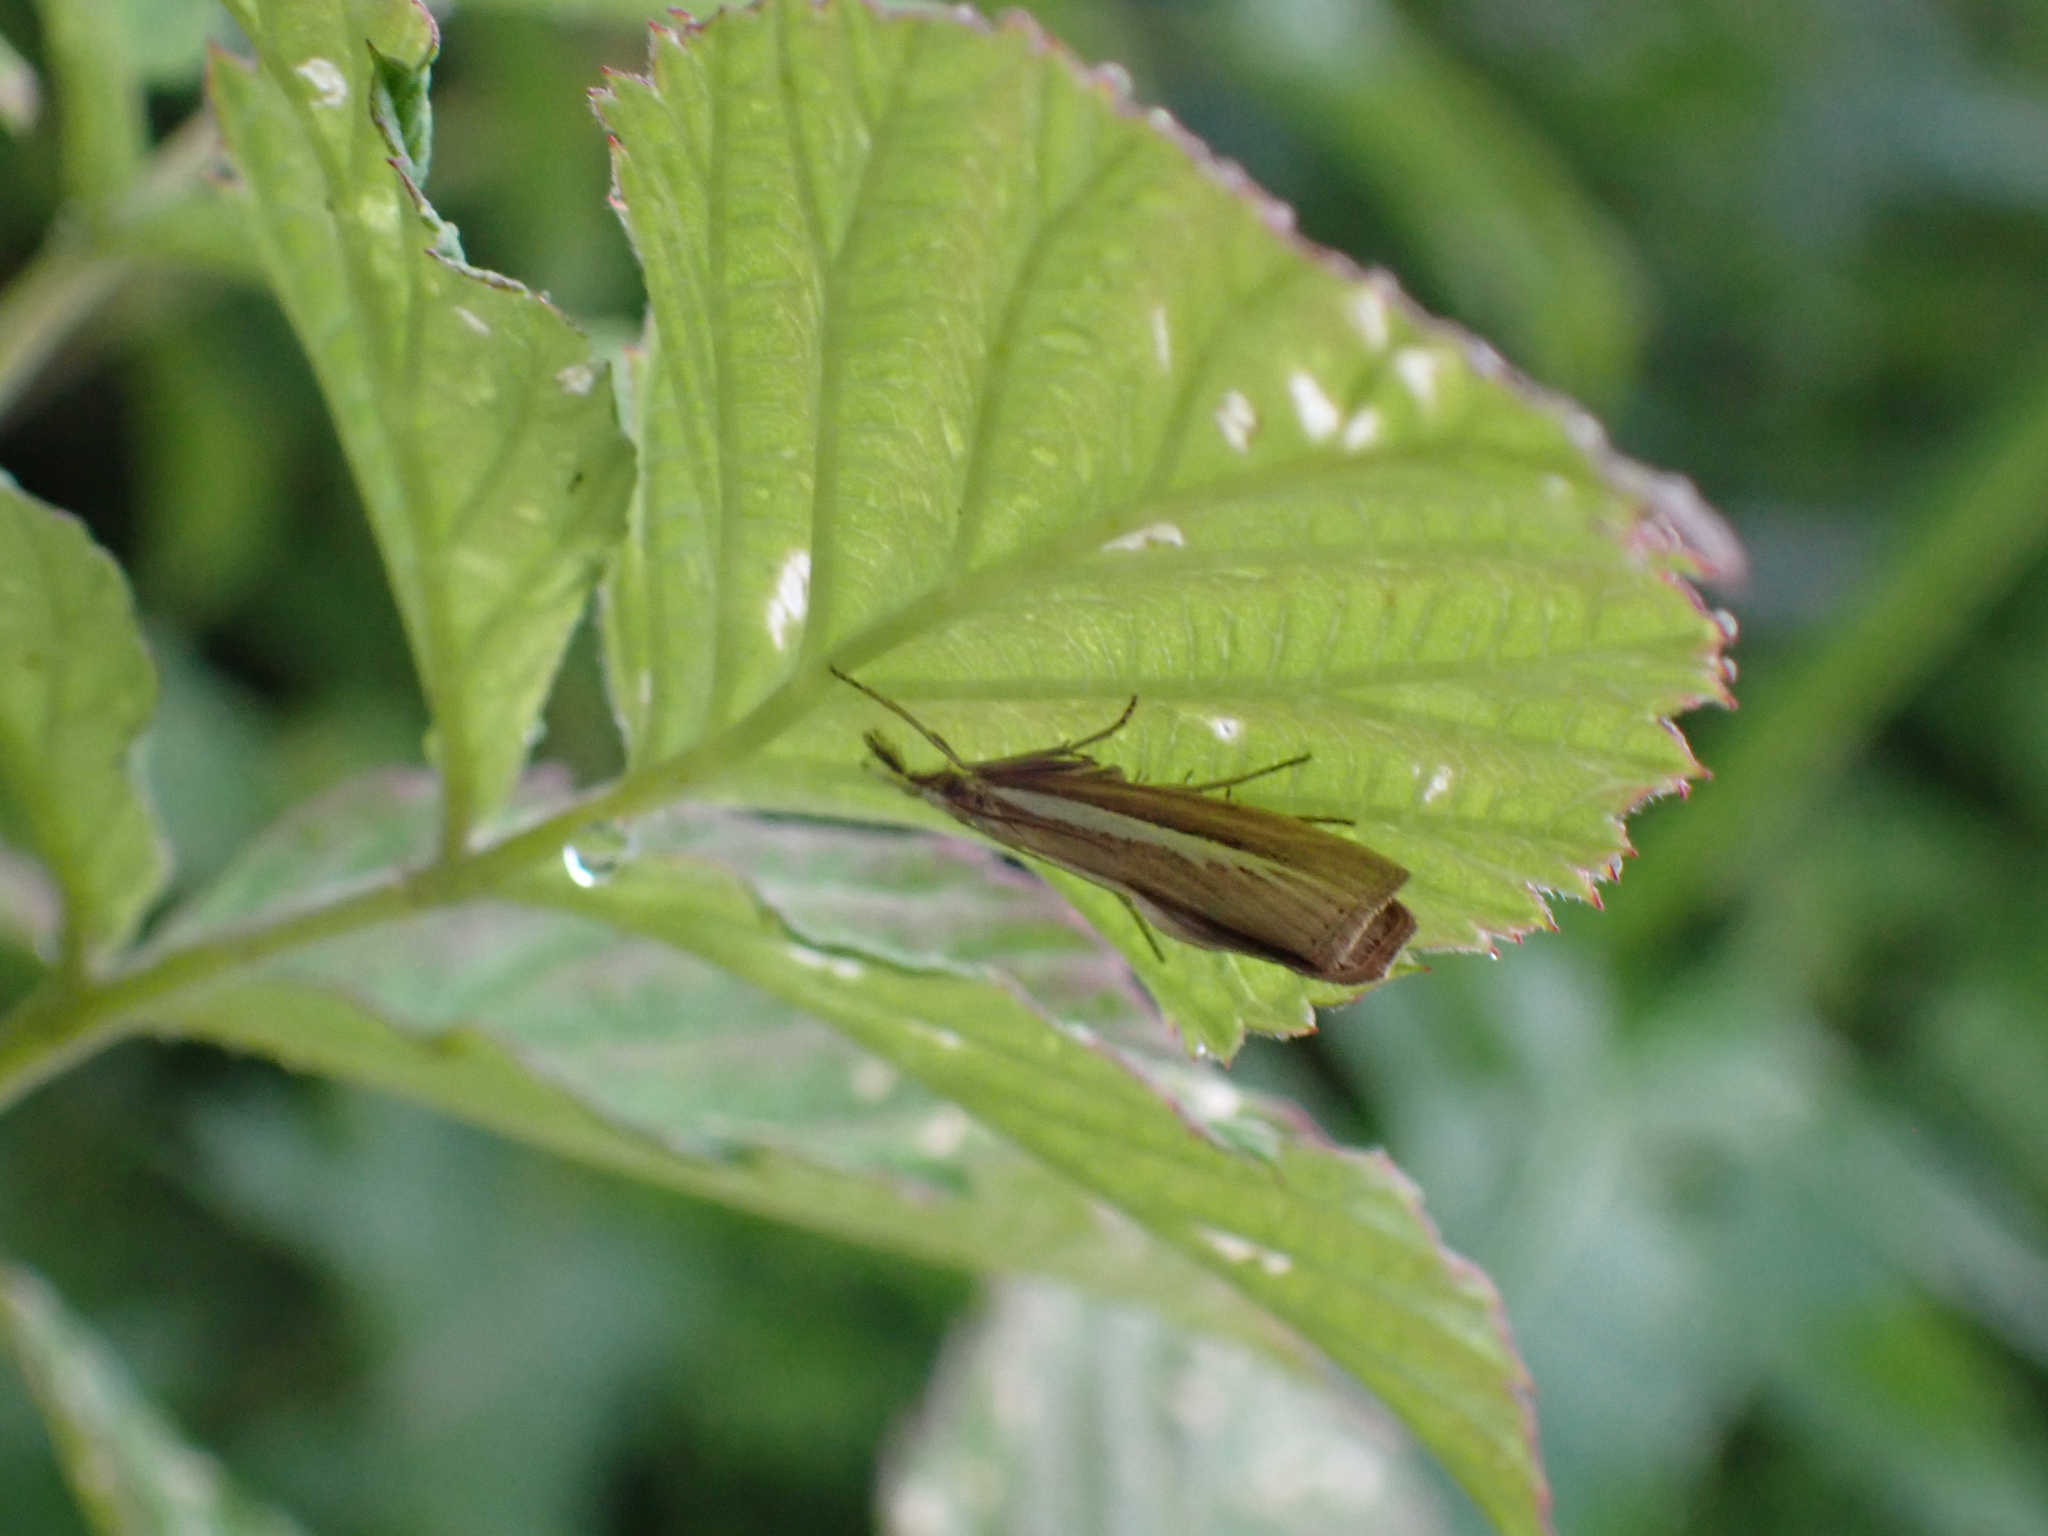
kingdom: Animalia
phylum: Arthropoda
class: Insecta
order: Lepidoptera
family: Crambidae
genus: Agriphila
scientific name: Agriphila selasella
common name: Pale-streak grass-veneer
